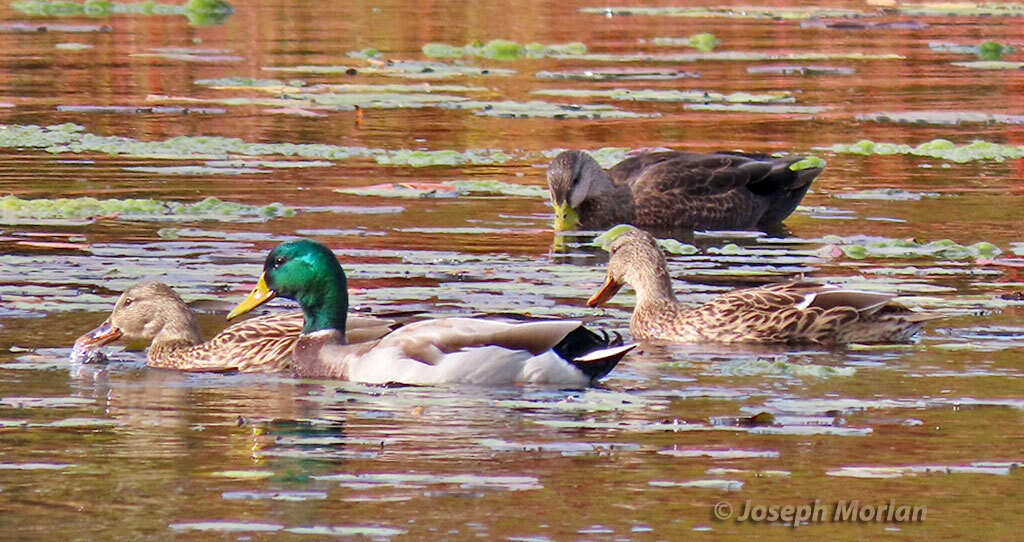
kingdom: Animalia
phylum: Chordata
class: Aves
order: Anseriformes
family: Anatidae
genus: Anas
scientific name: Anas platyrhynchos
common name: Mallard
